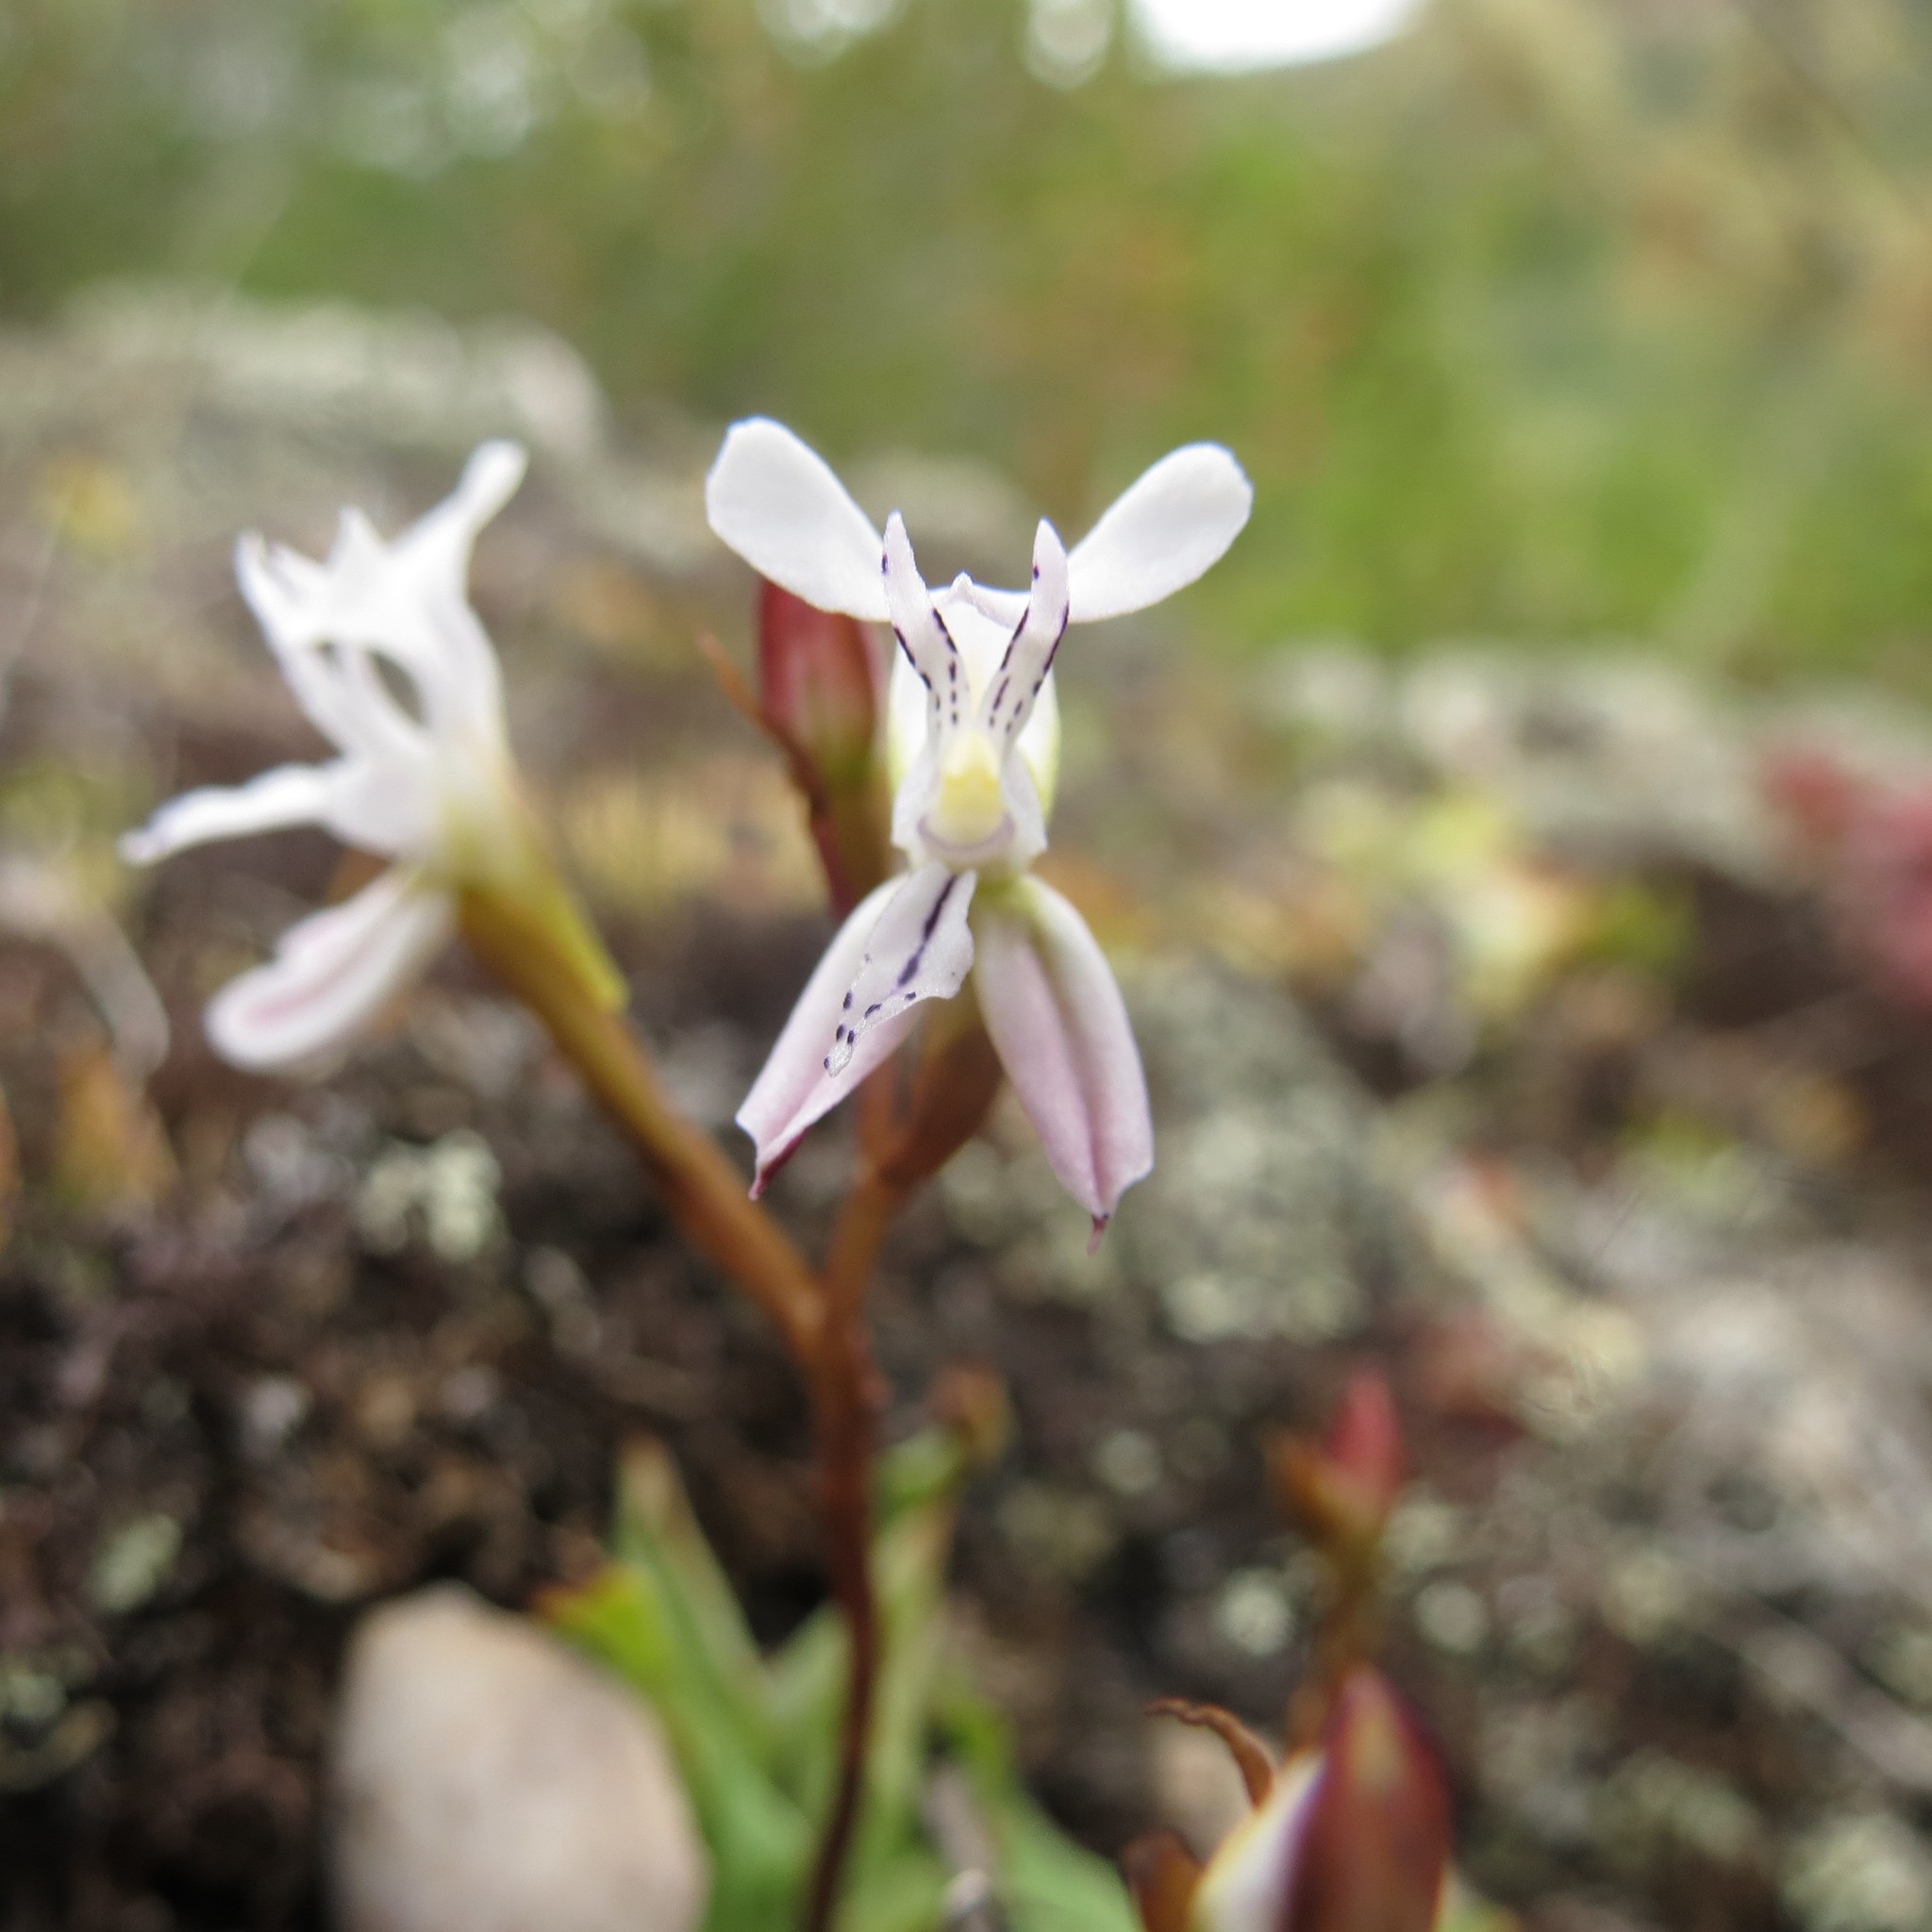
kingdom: Plantae
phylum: Tracheophyta
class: Liliopsida
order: Asparagales
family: Orchidaceae
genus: Disa
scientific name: Disa sagittalis
